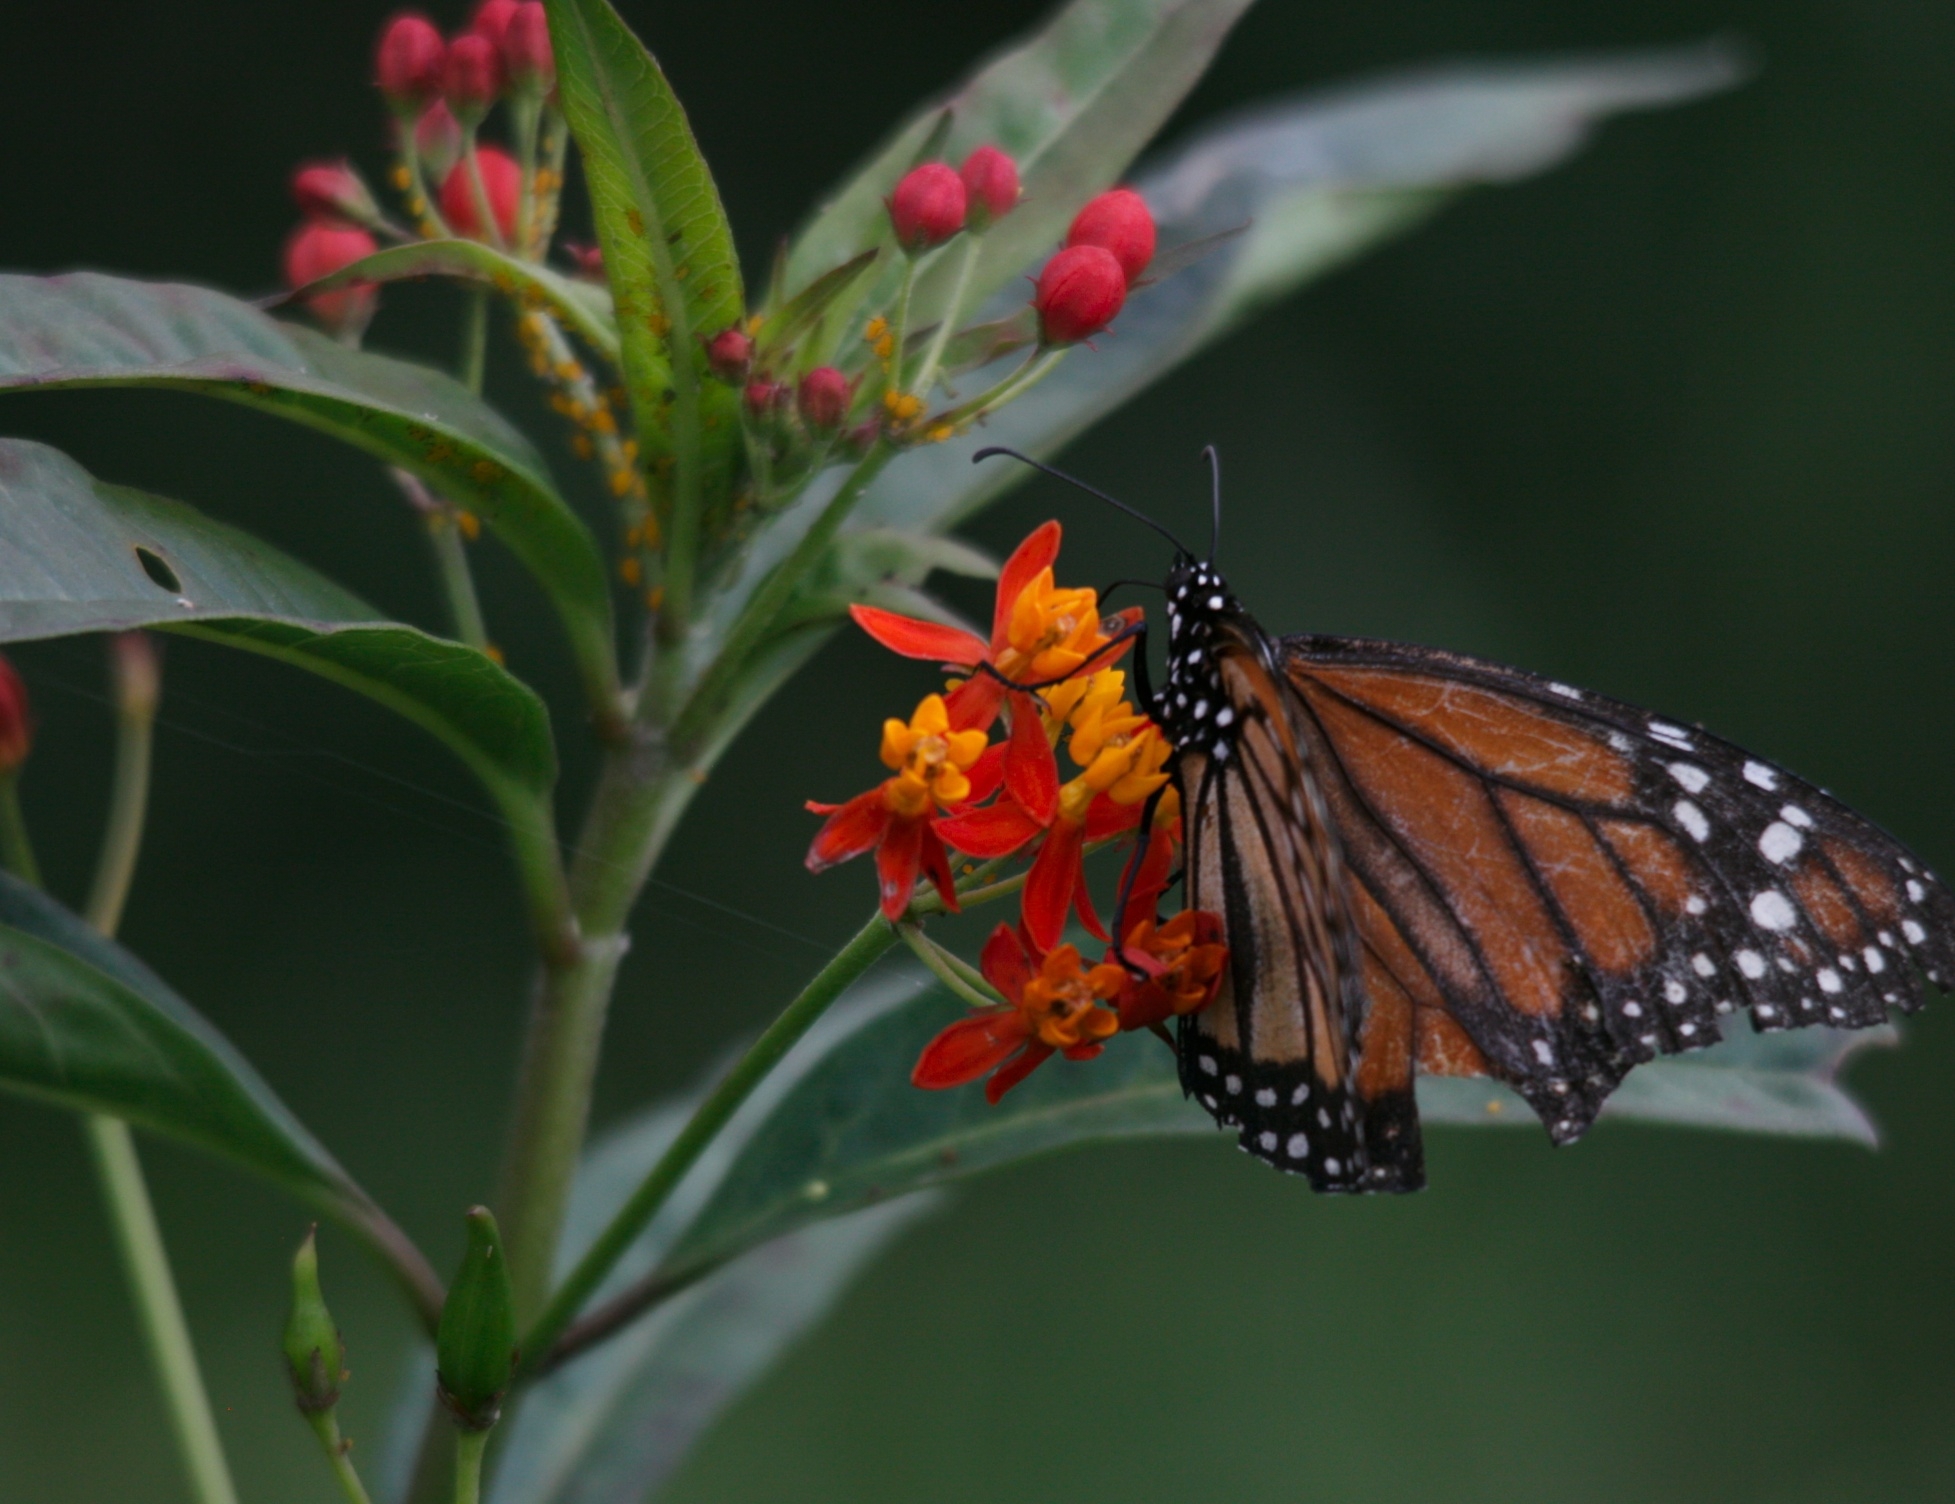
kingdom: Animalia
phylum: Arthropoda
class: Insecta
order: Lepidoptera
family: Nymphalidae
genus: Danaus
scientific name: Danaus erippus
